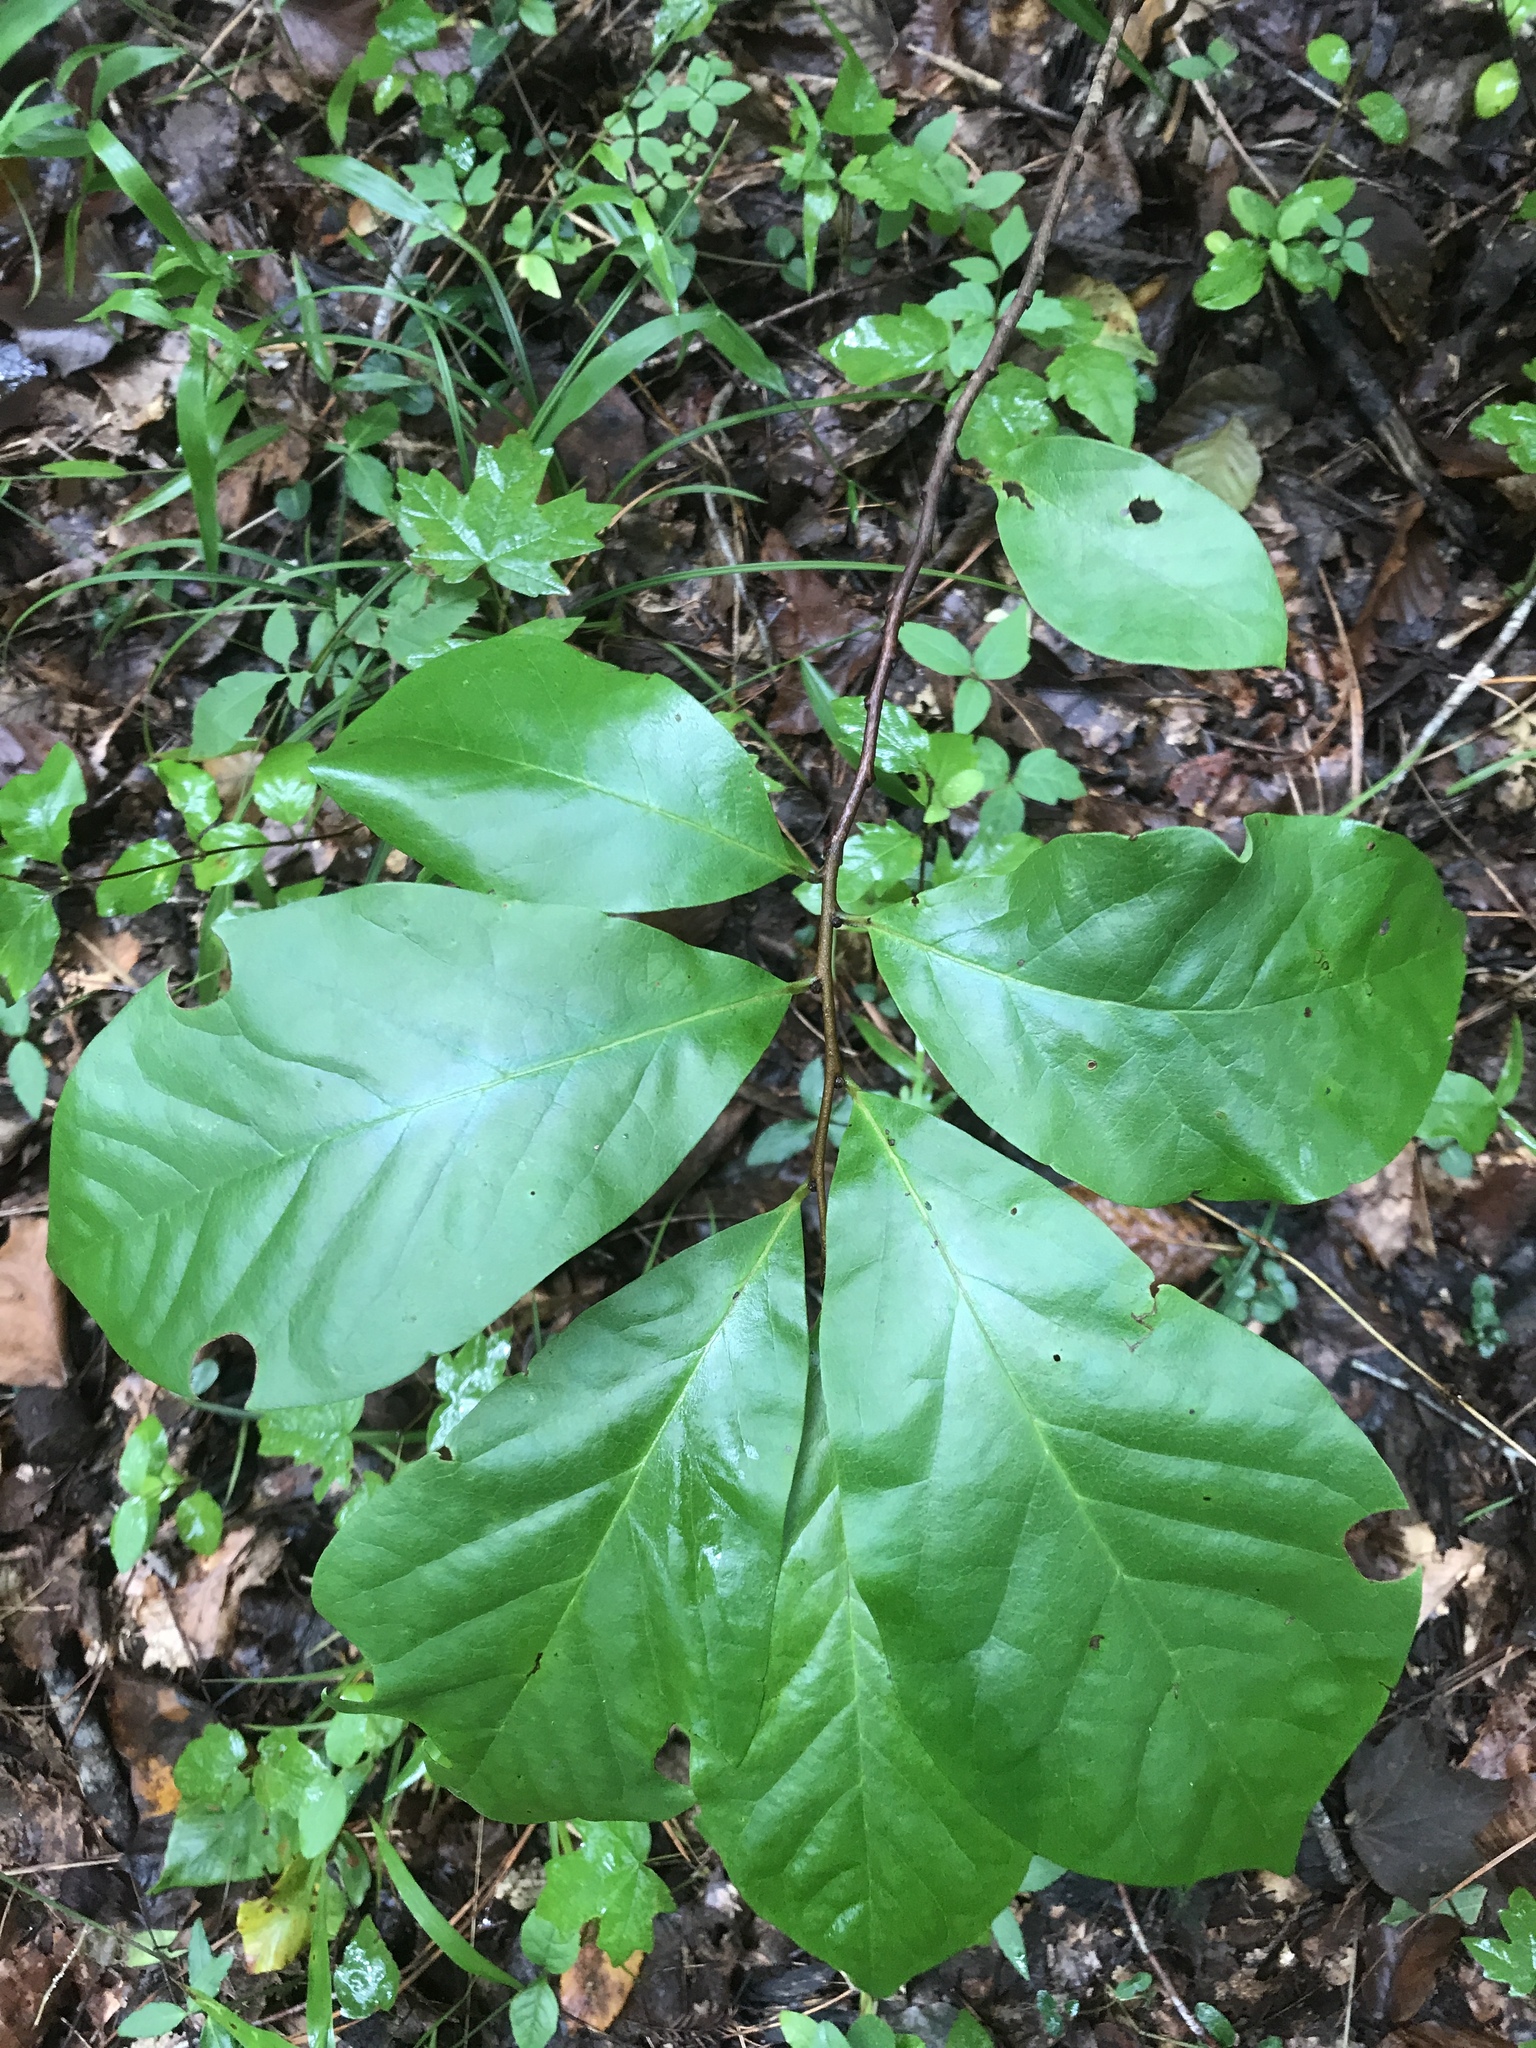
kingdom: Plantae
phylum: Tracheophyta
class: Magnoliopsida
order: Magnoliales
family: Annonaceae
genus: Asimina
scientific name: Asimina parviflora
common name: Dwarf pawpaw
